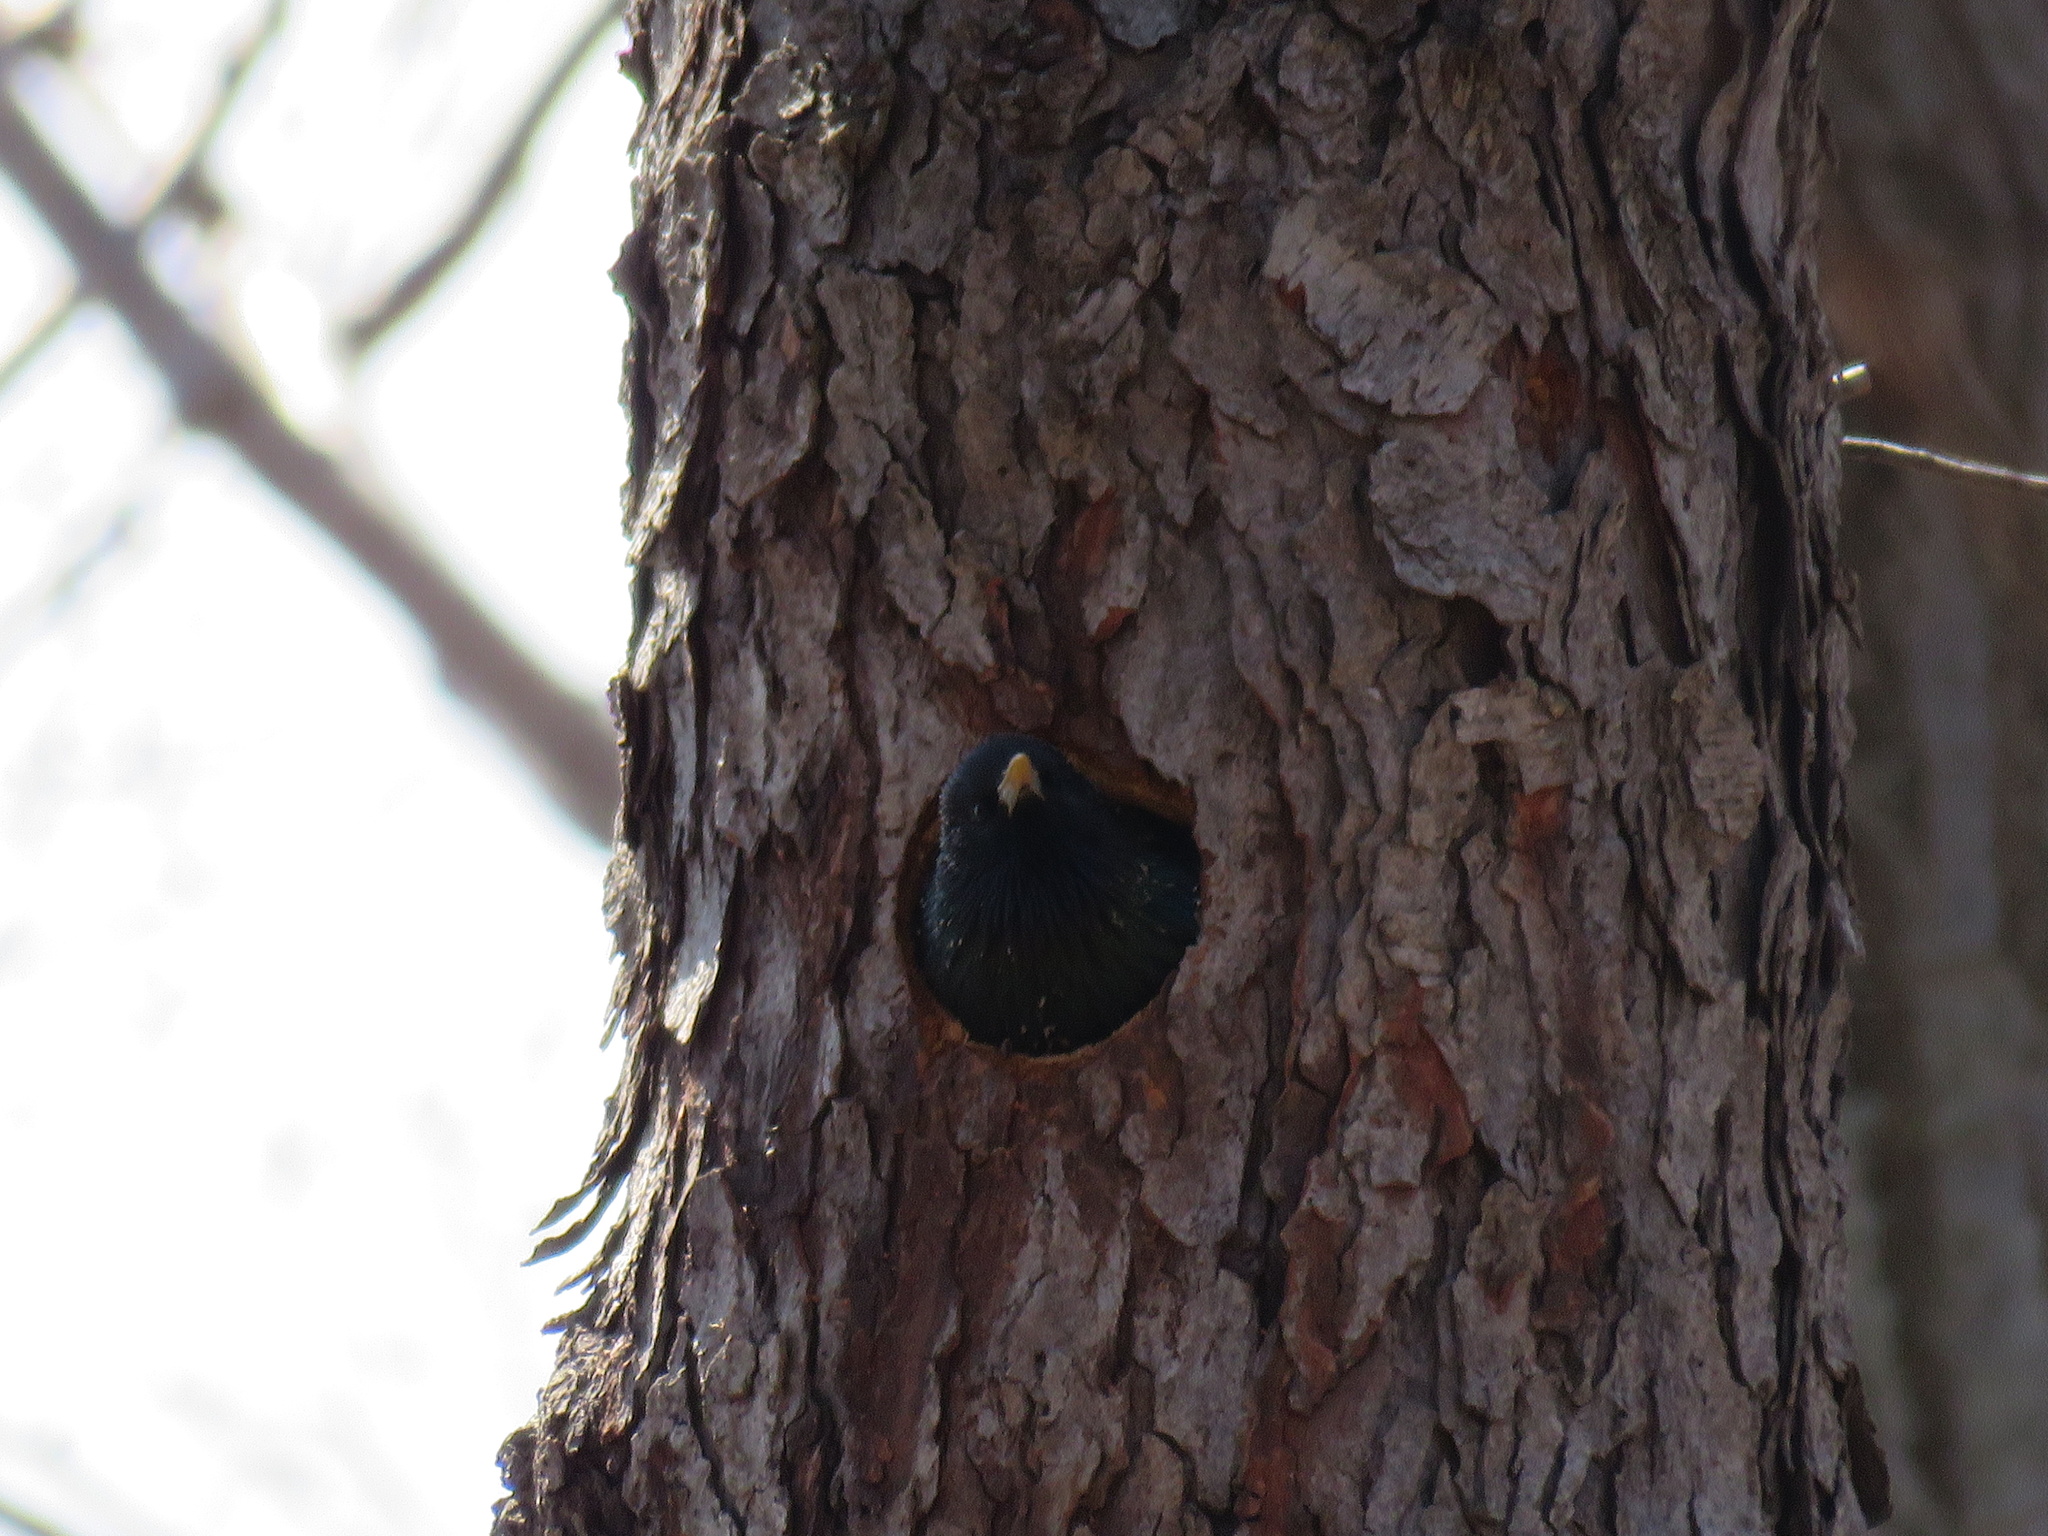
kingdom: Animalia
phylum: Chordata
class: Aves
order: Passeriformes
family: Sturnidae
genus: Sturnus
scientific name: Sturnus vulgaris
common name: Common starling
